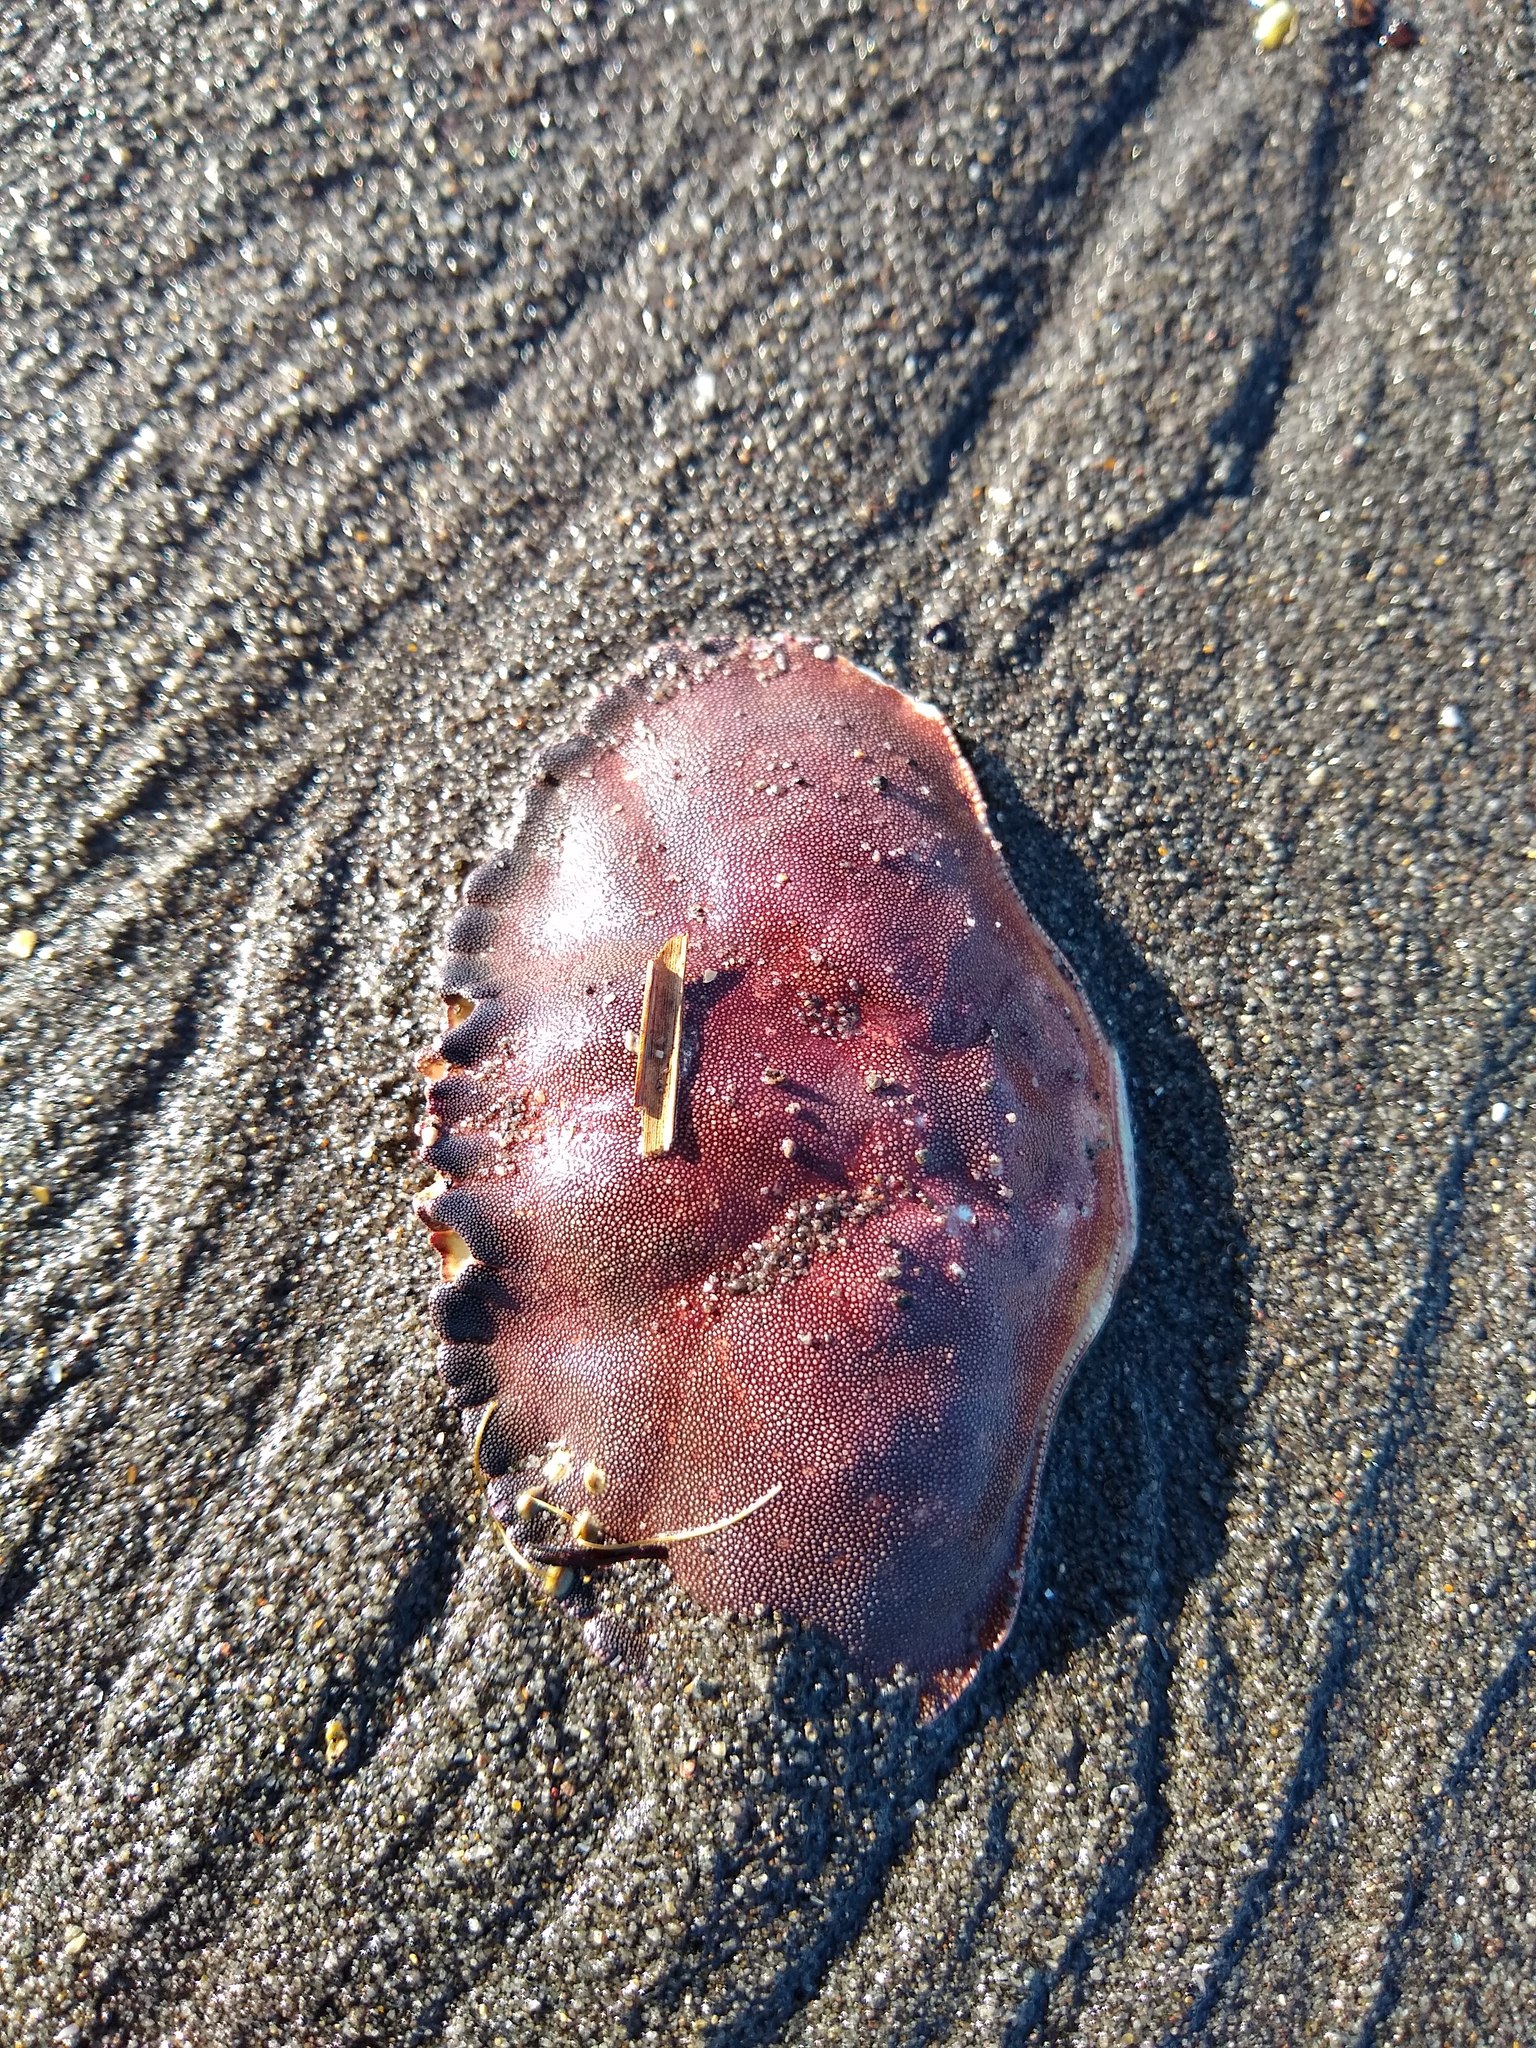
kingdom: Animalia
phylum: Arthropoda
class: Malacostraca
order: Decapoda
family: Cancridae
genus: Metacarcinus
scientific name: Metacarcinus novaezelandiae
